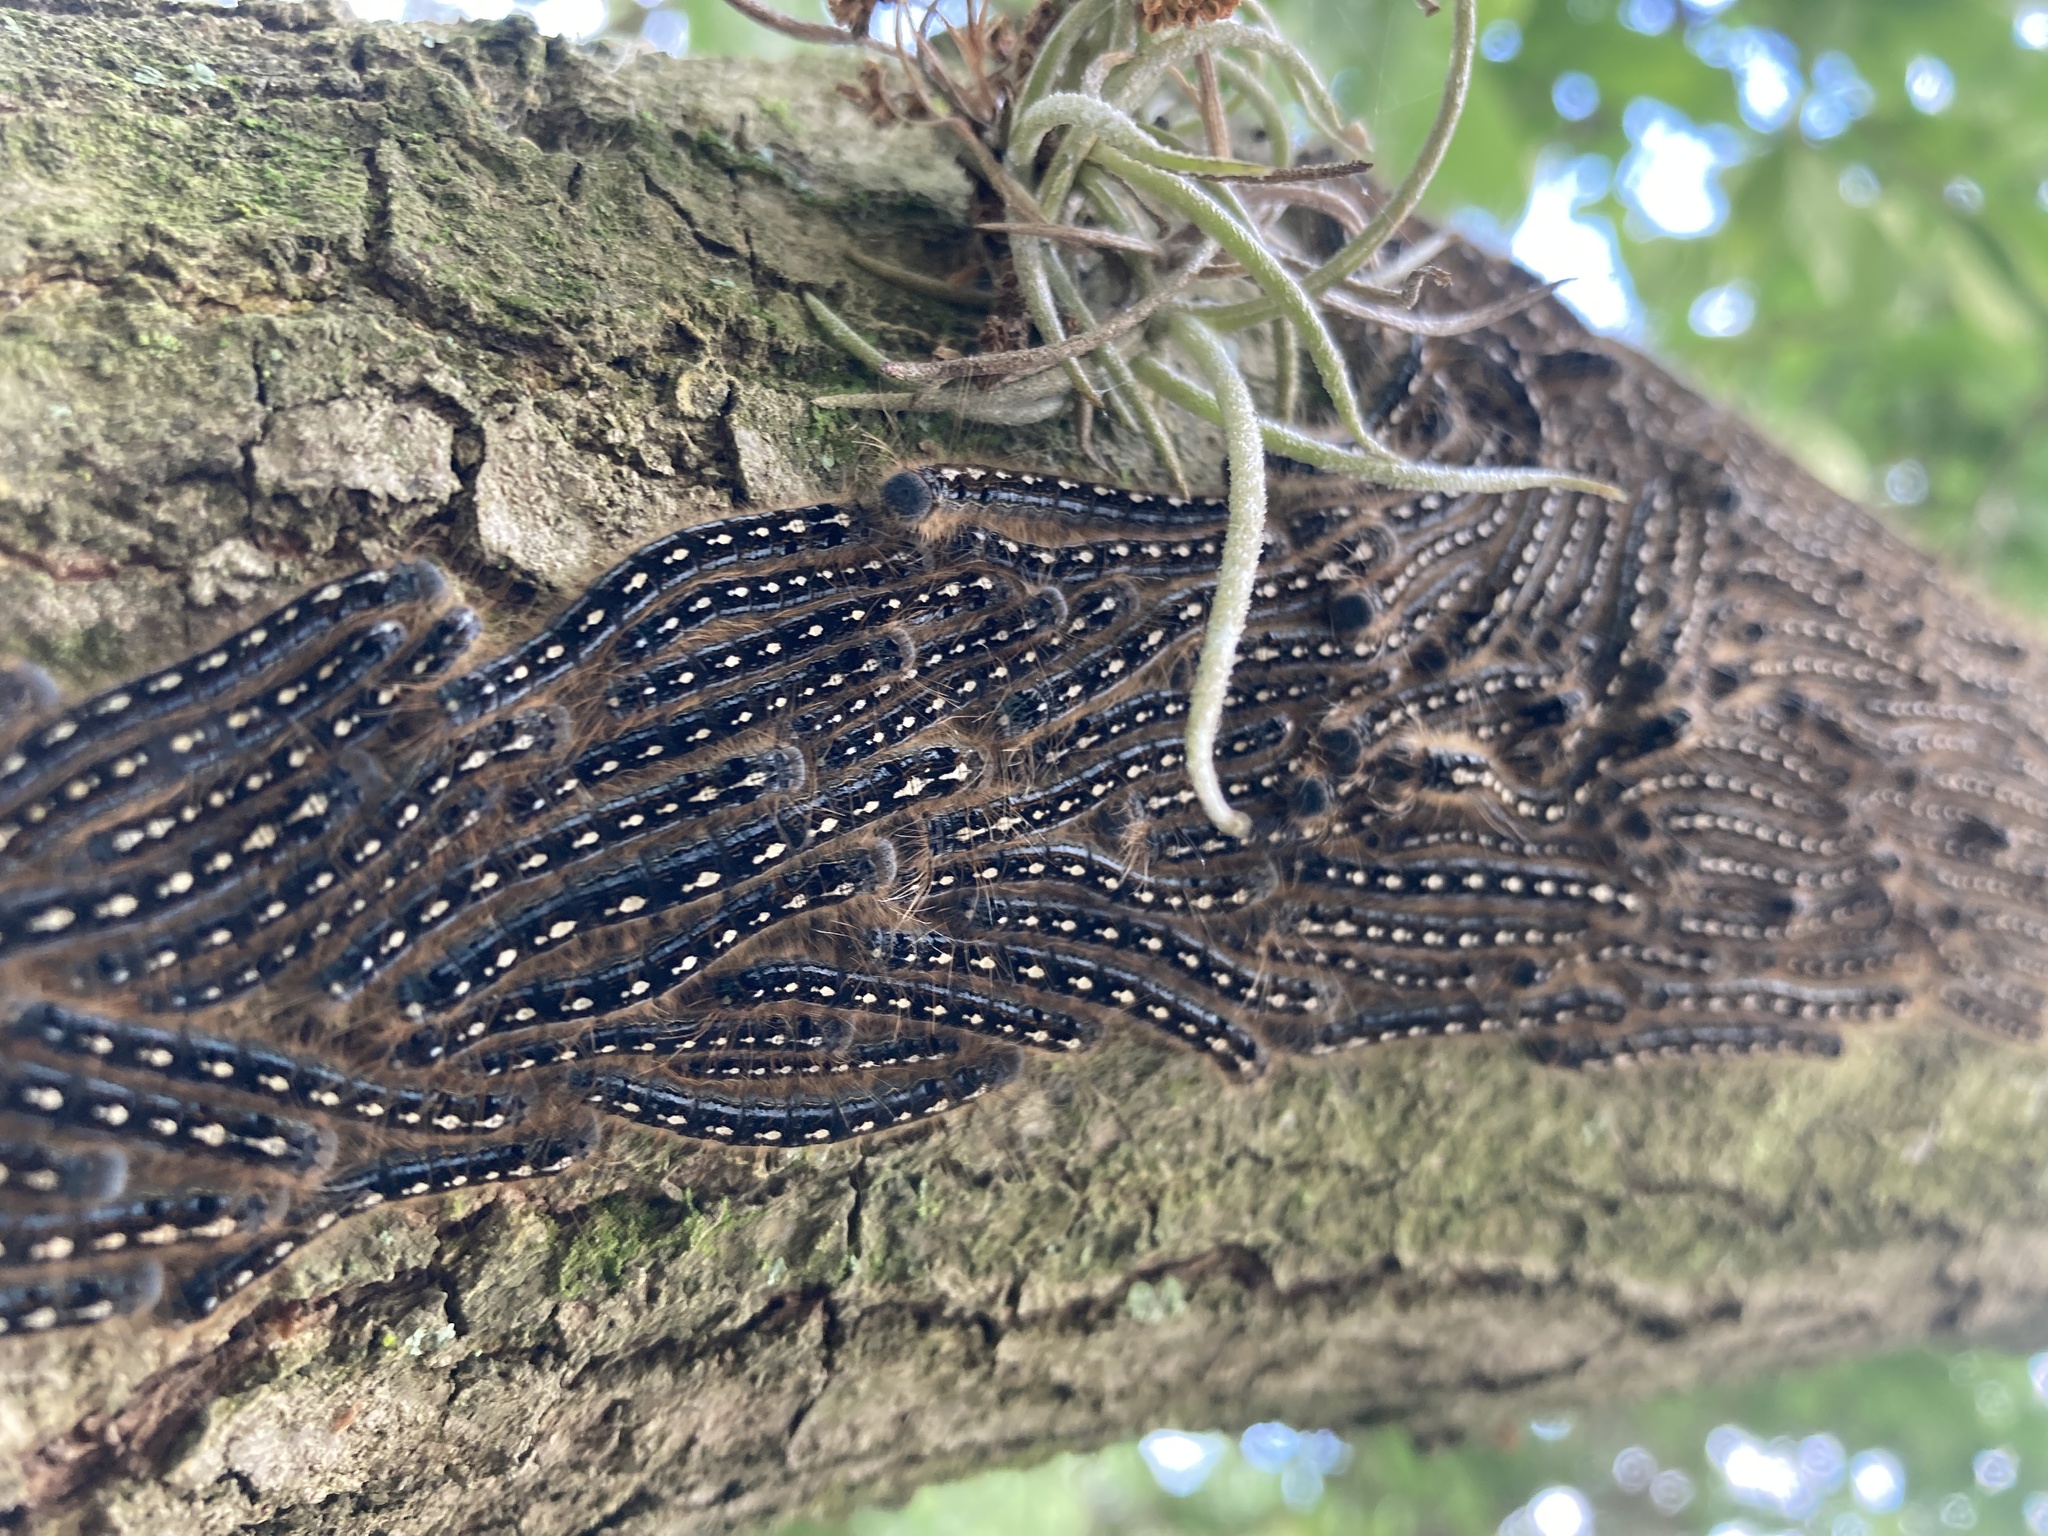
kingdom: Animalia
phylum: Arthropoda
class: Insecta
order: Lepidoptera
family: Lasiocampidae
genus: Malacosoma
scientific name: Malacosoma disstria
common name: Forest tent caterpillar
